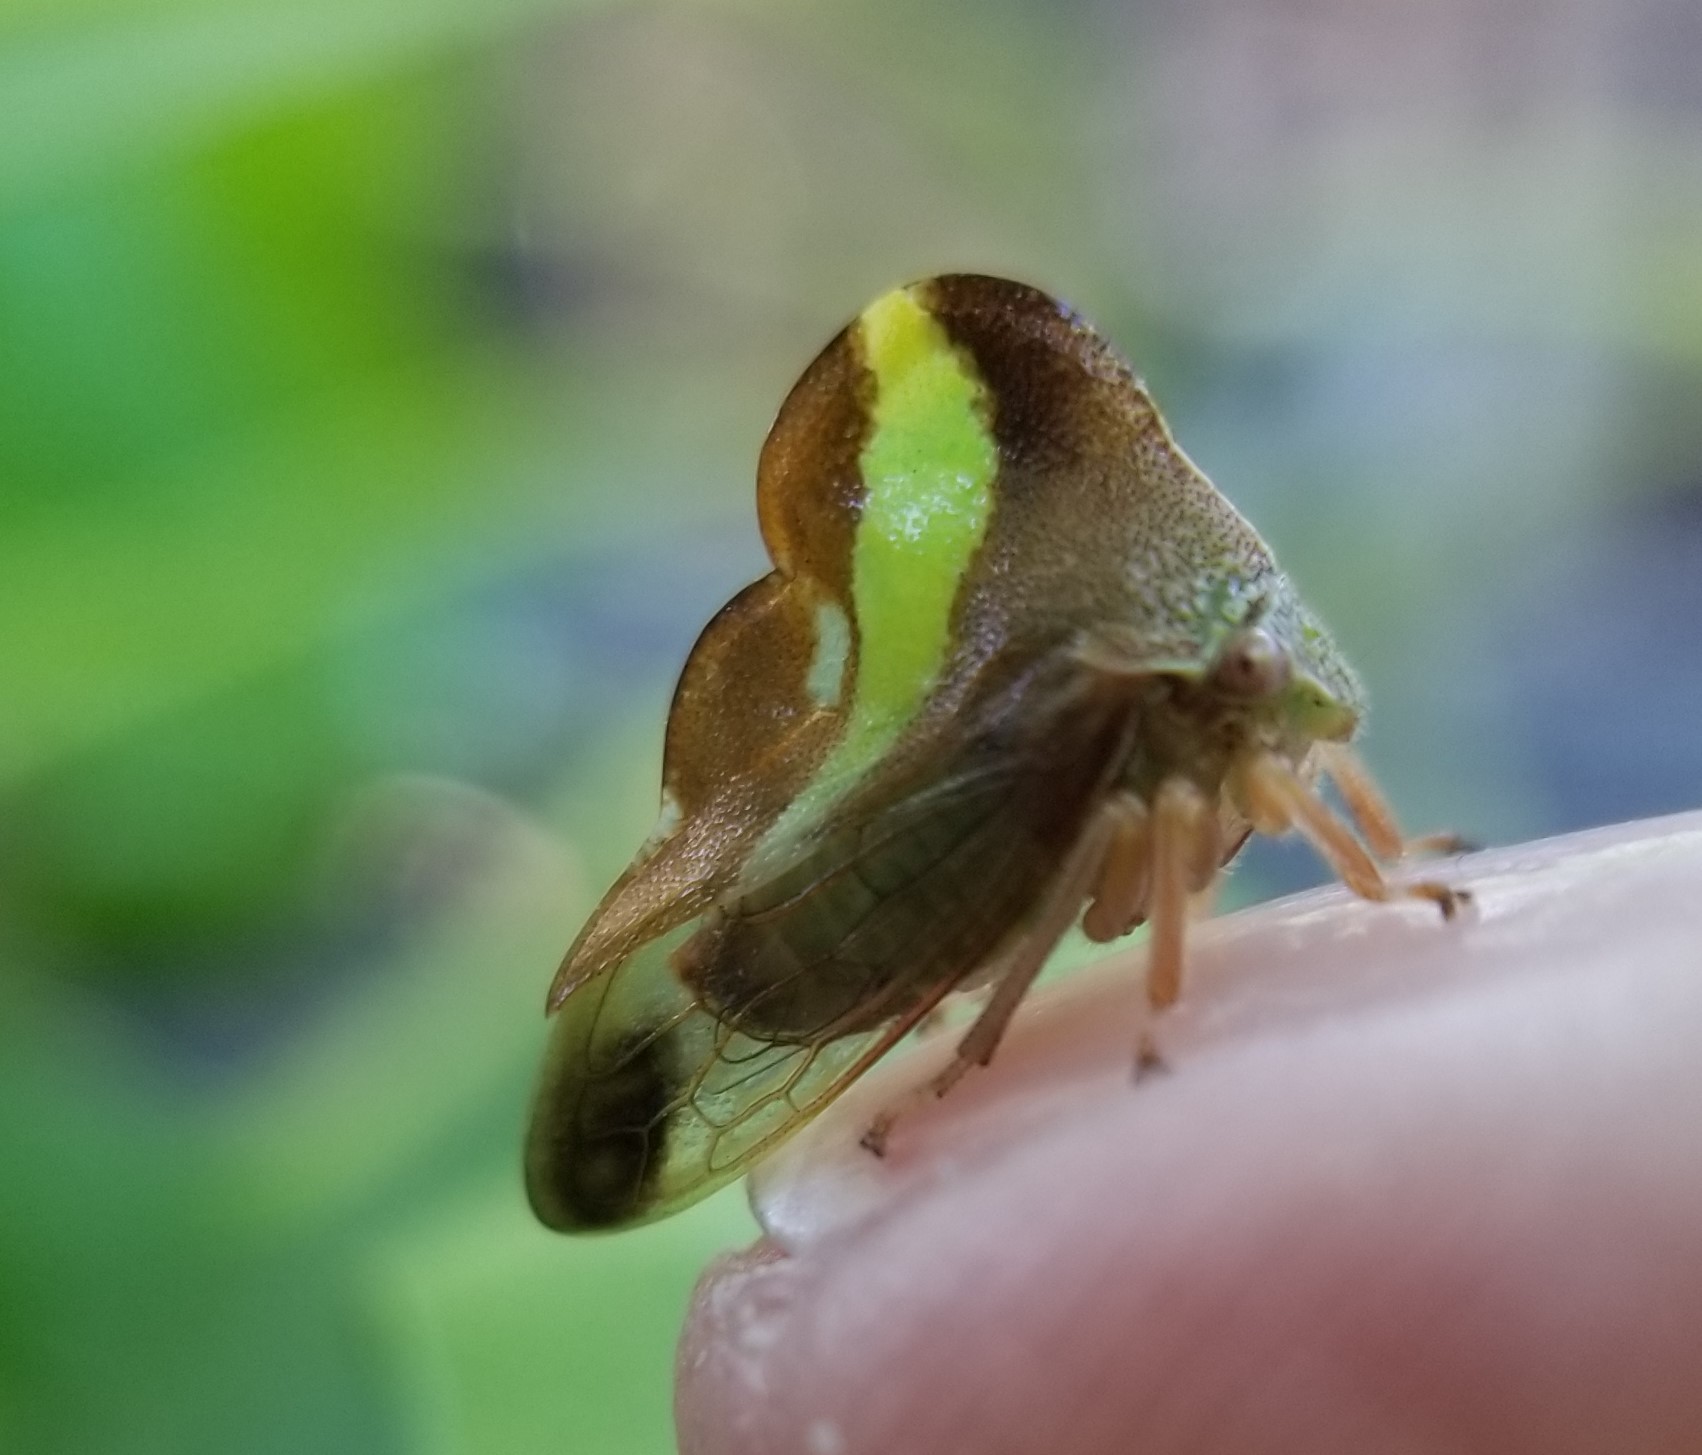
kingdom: Animalia
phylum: Arthropoda
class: Insecta
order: Hemiptera
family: Membracidae
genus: Smilia
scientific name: Smilia camelus
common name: Camel treehopper
